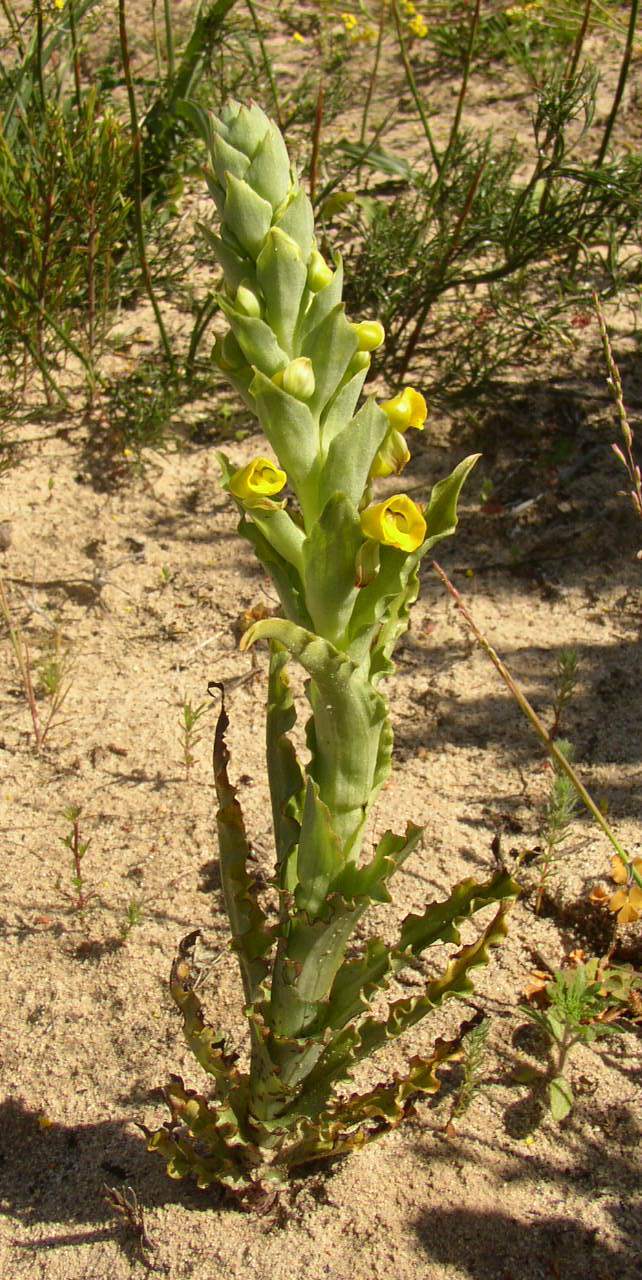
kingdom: Plantae
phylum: Tracheophyta
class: Liliopsida
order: Asparagales
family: Orchidaceae
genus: Corycium
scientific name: Corycium crispum
